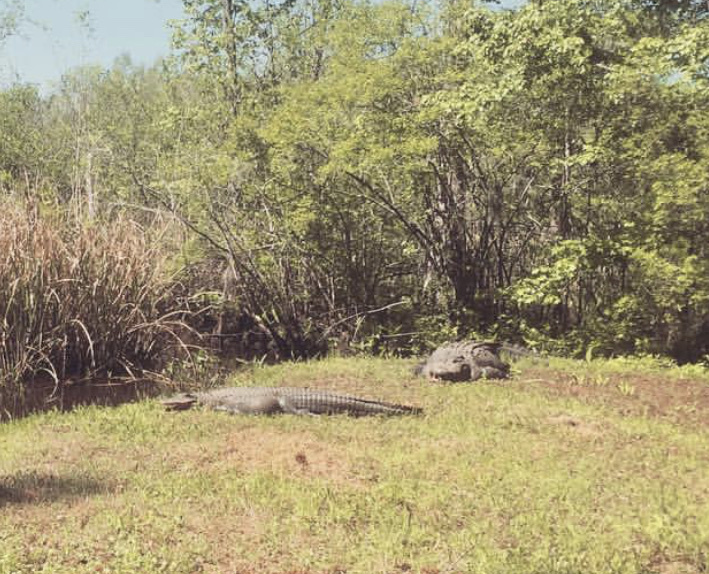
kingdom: Animalia
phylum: Chordata
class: Crocodylia
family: Alligatoridae
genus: Alligator
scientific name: Alligator mississippiensis
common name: American alligator
